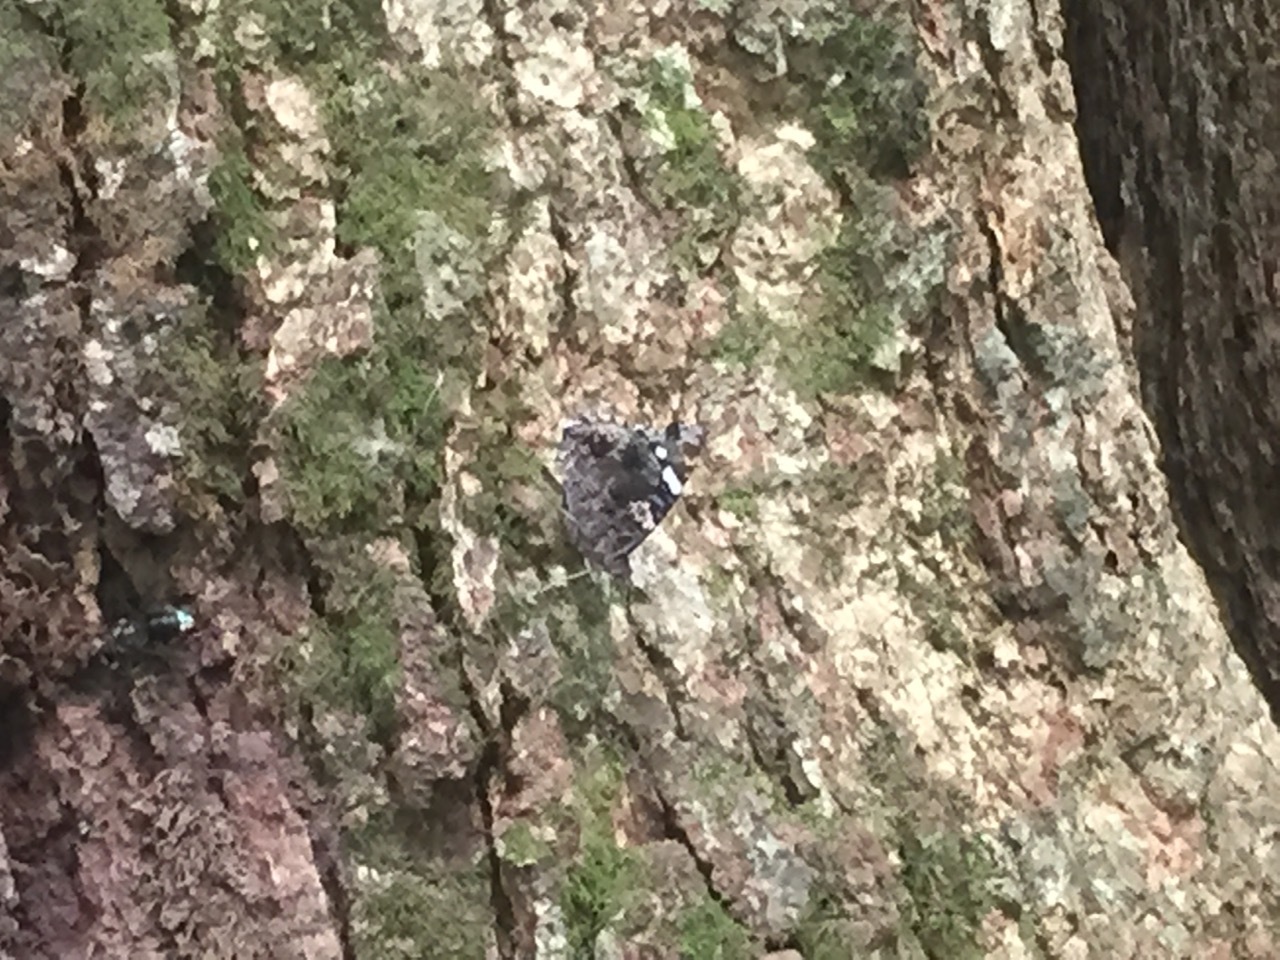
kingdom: Animalia
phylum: Arthropoda
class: Insecta
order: Lepidoptera
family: Nymphalidae
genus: Vanessa
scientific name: Vanessa atalanta
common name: Red admiral
